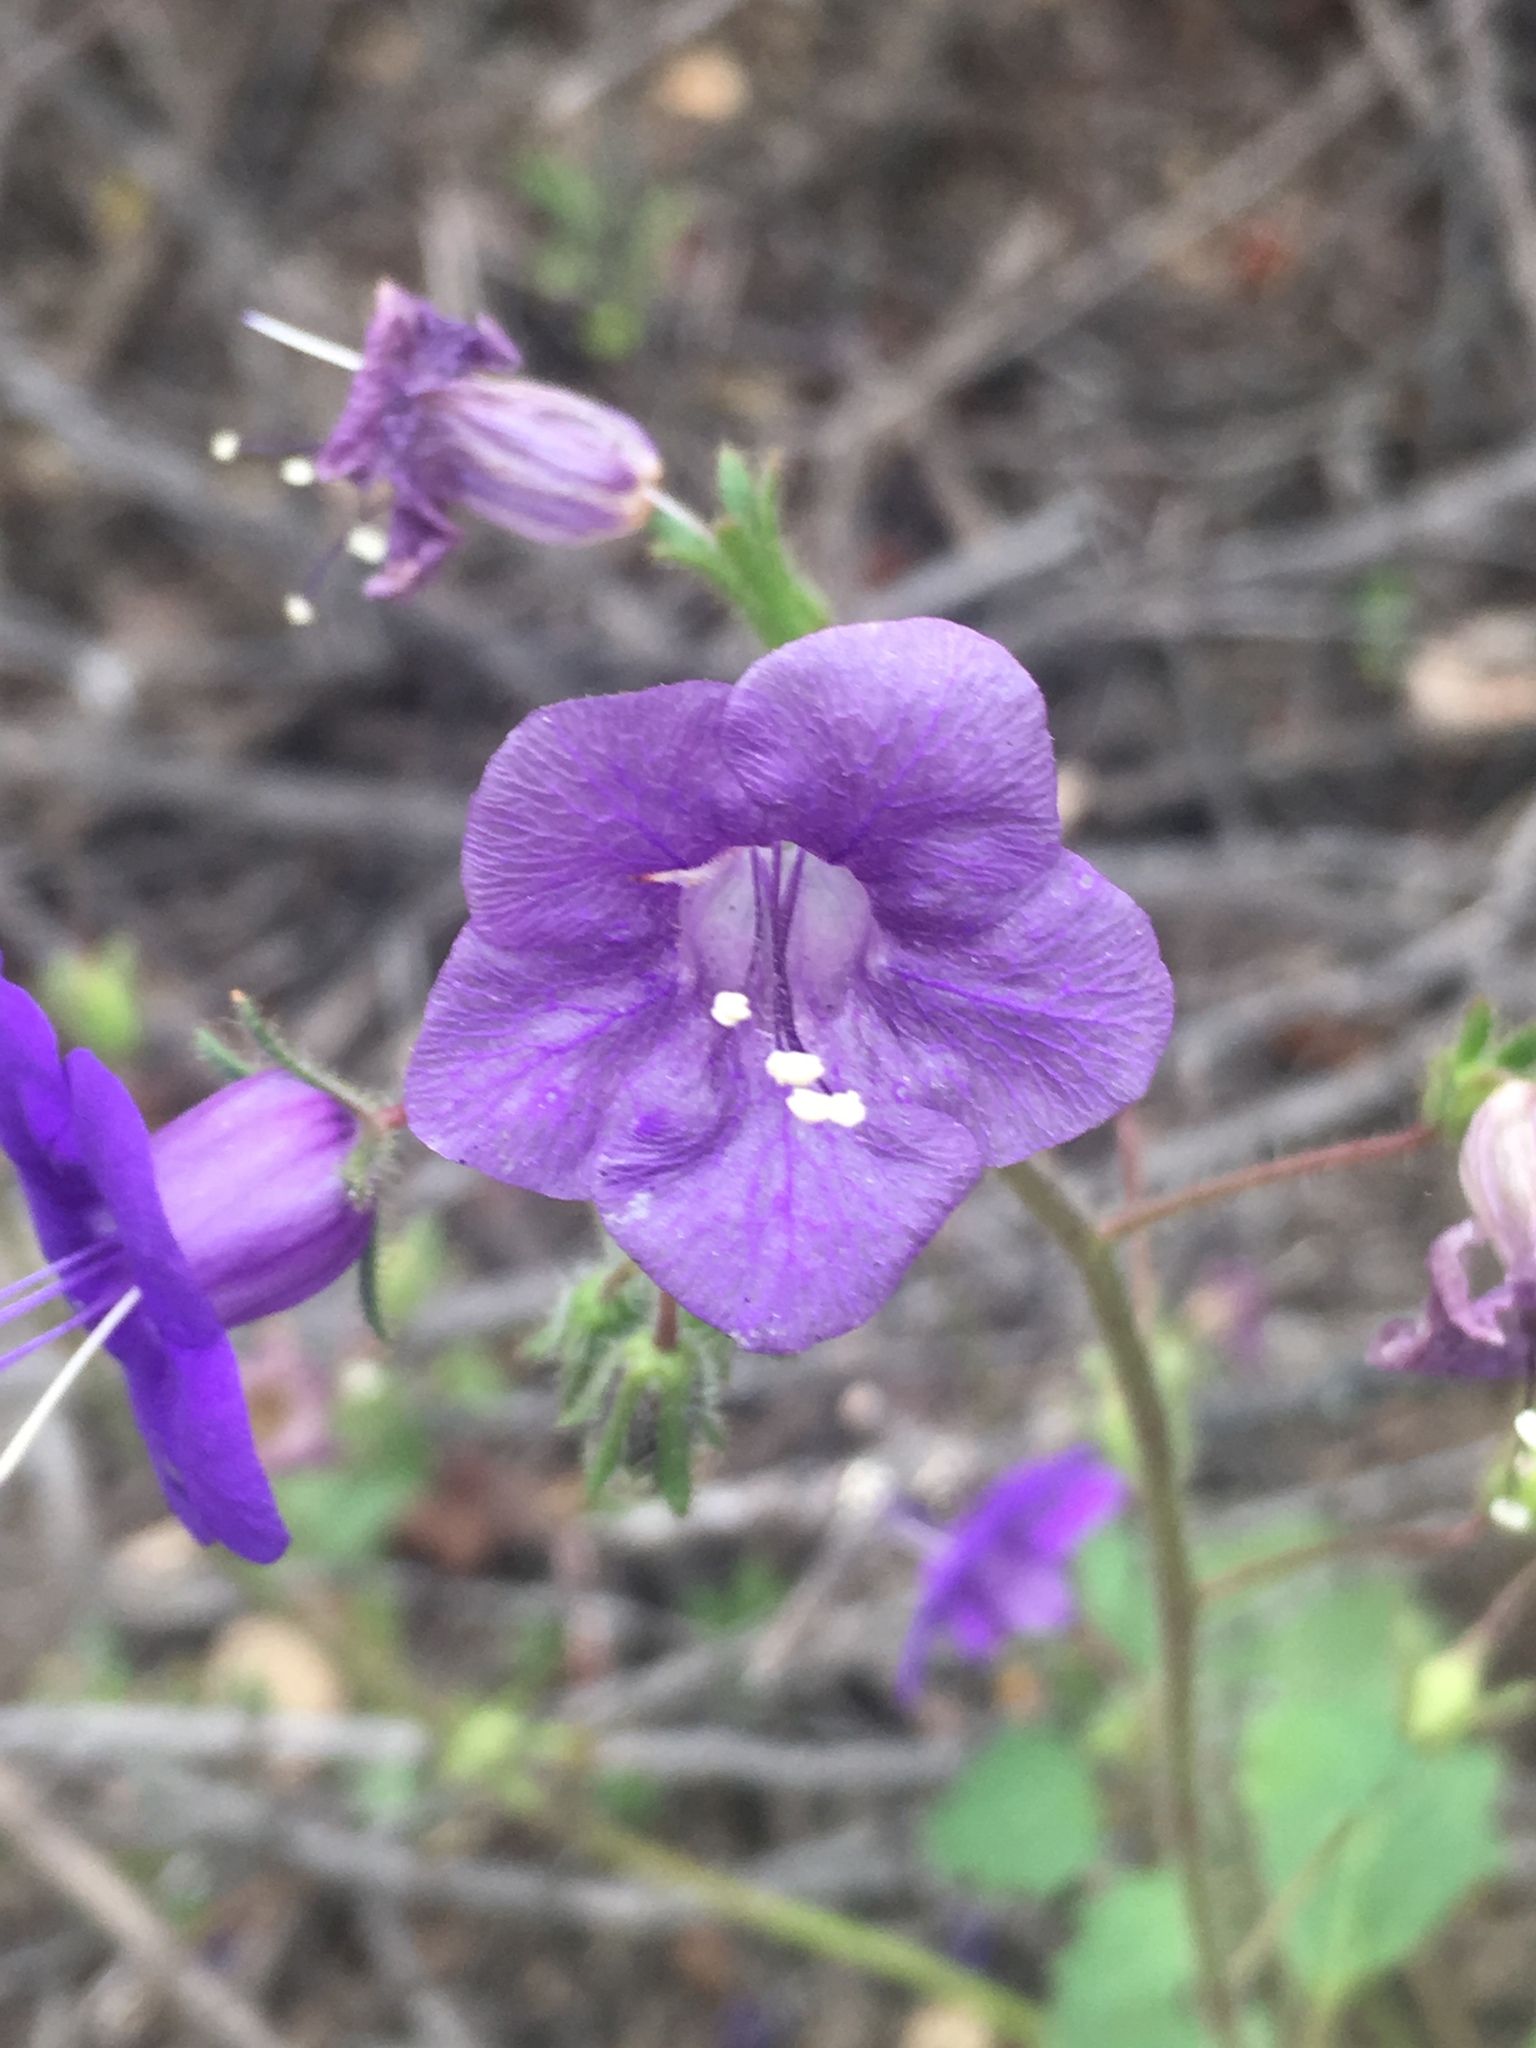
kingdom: Plantae
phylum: Tracheophyta
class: Magnoliopsida
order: Boraginales
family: Hydrophyllaceae
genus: Phacelia
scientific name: Phacelia minor
